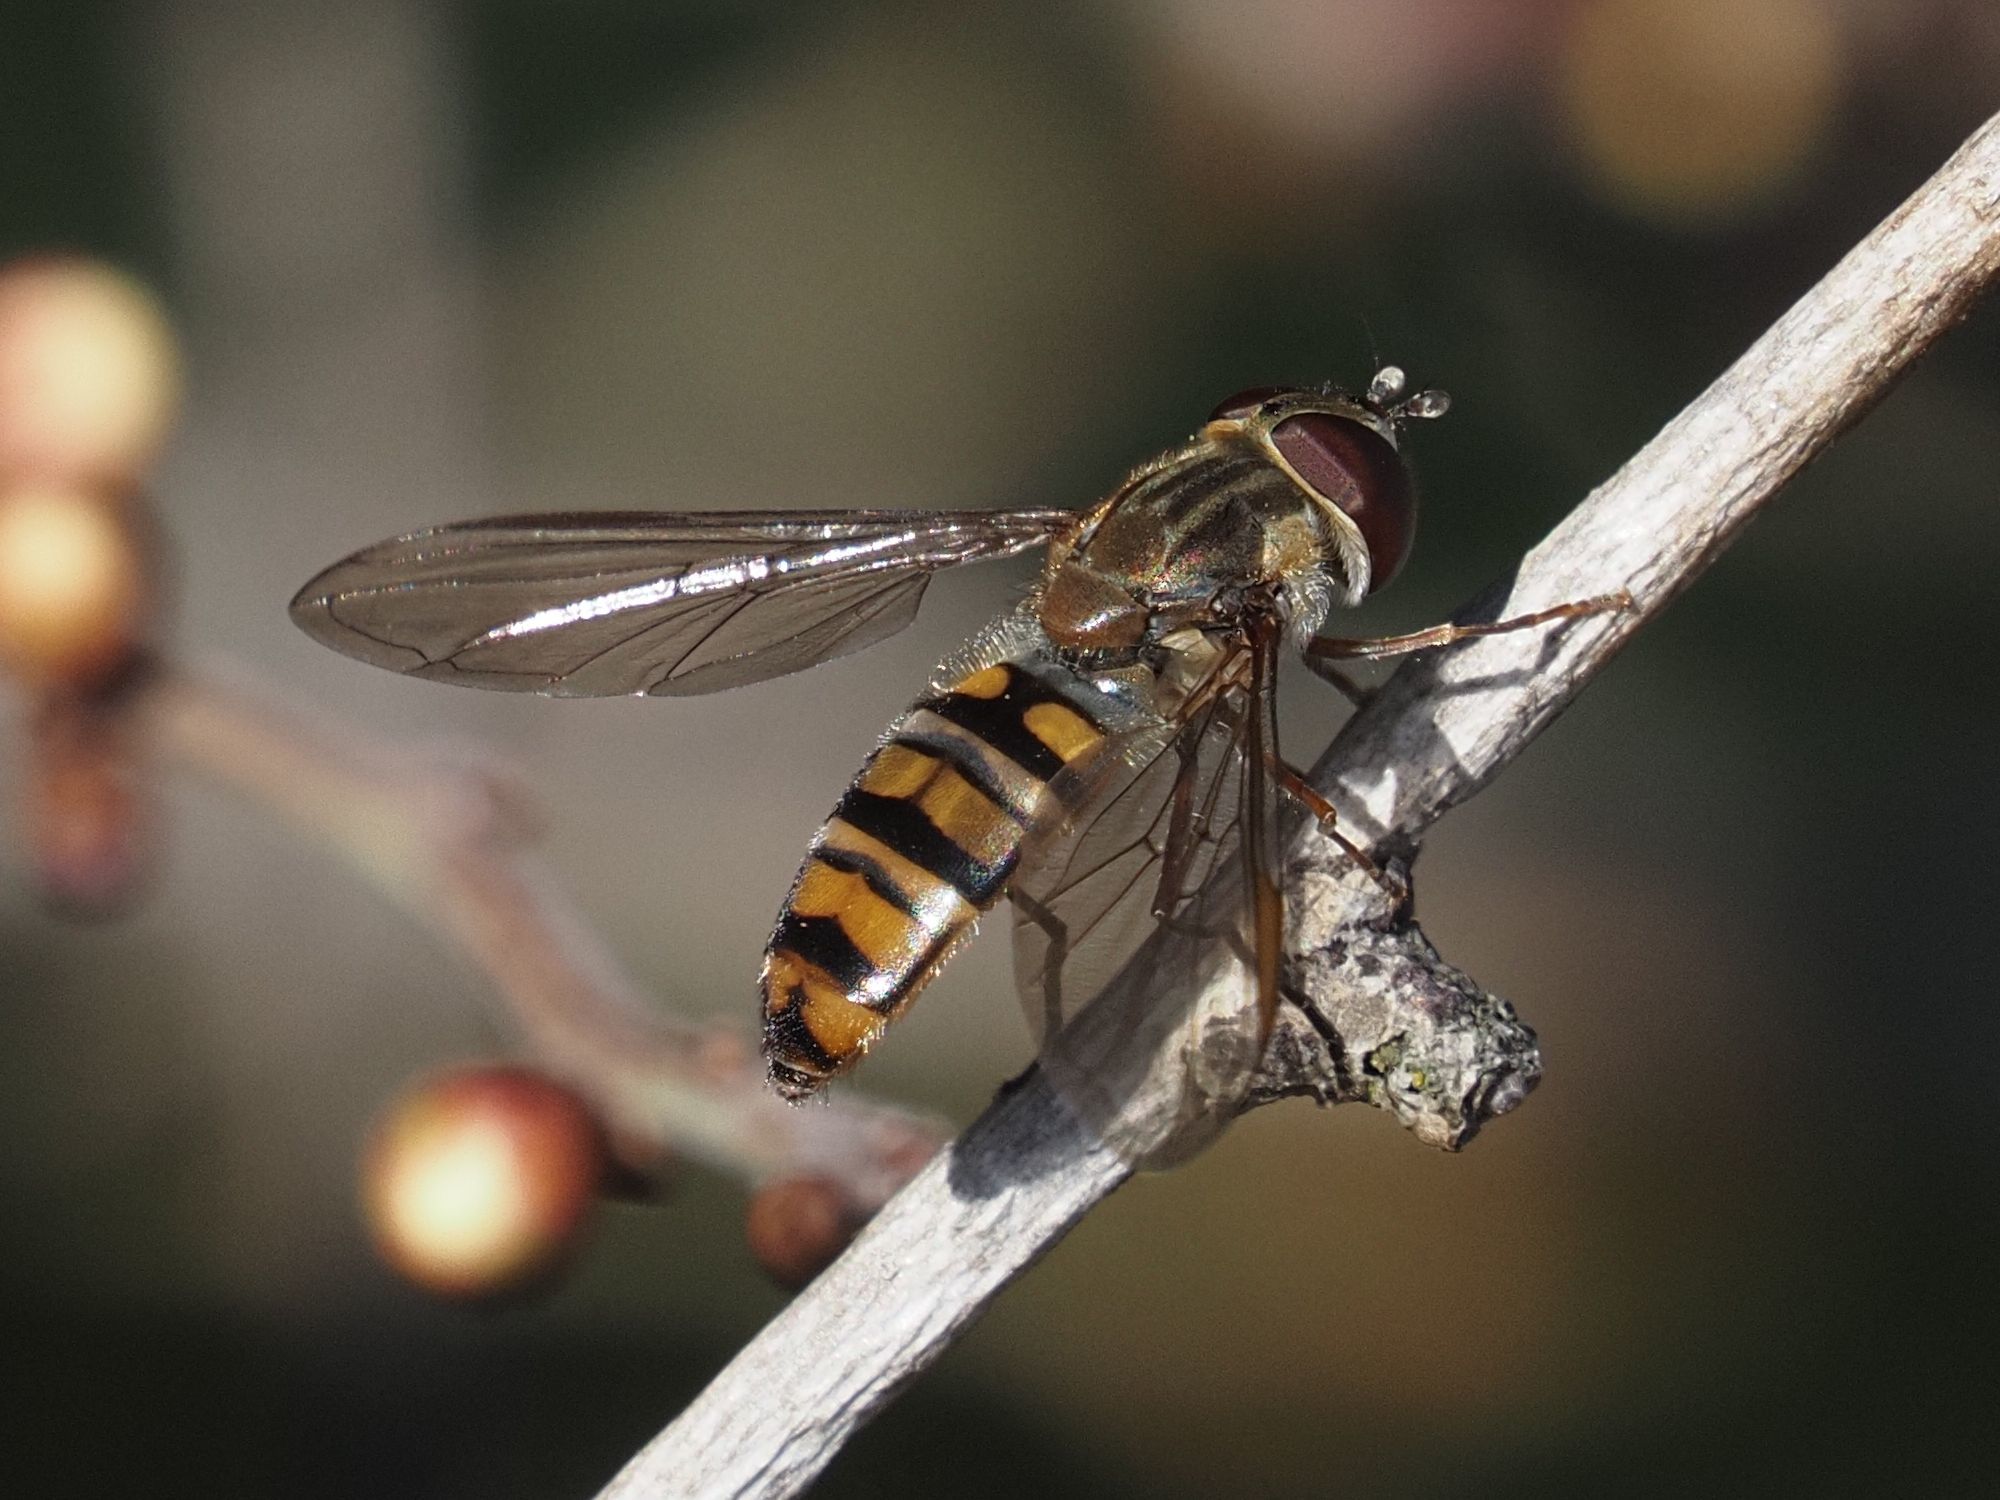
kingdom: Animalia
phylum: Arthropoda
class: Insecta
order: Diptera
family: Syrphidae
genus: Episyrphus
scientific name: Episyrphus balteatus
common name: Marmalade hoverfly
